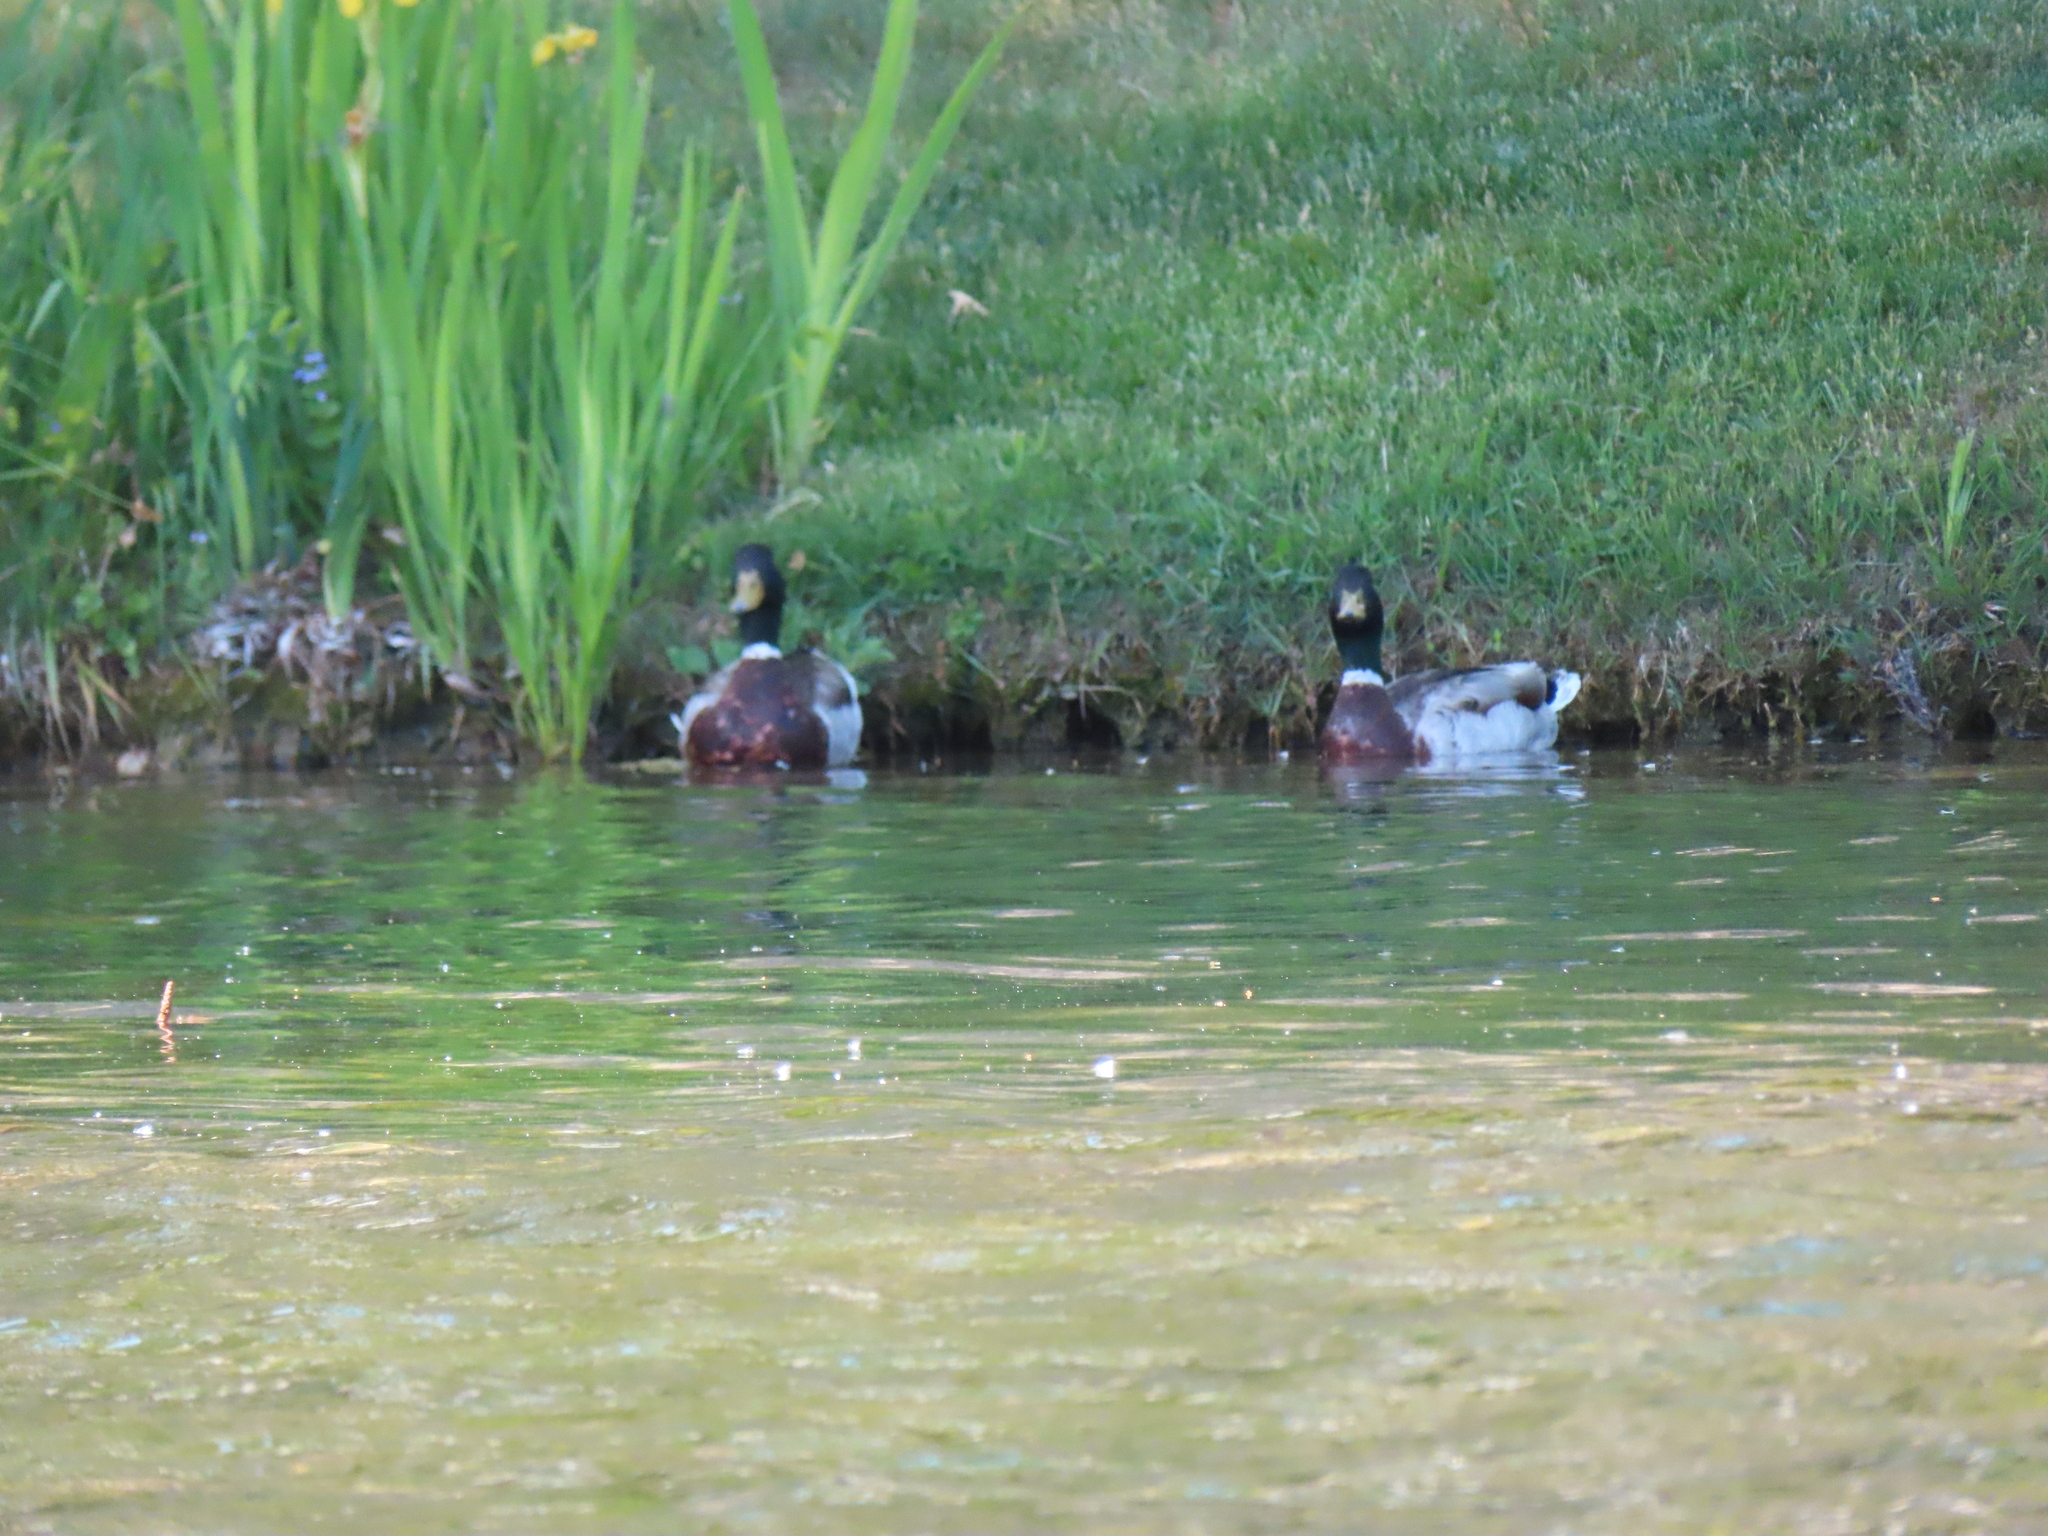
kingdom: Animalia
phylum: Chordata
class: Aves
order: Anseriformes
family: Anatidae
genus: Anas
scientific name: Anas platyrhynchos
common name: Mallard
